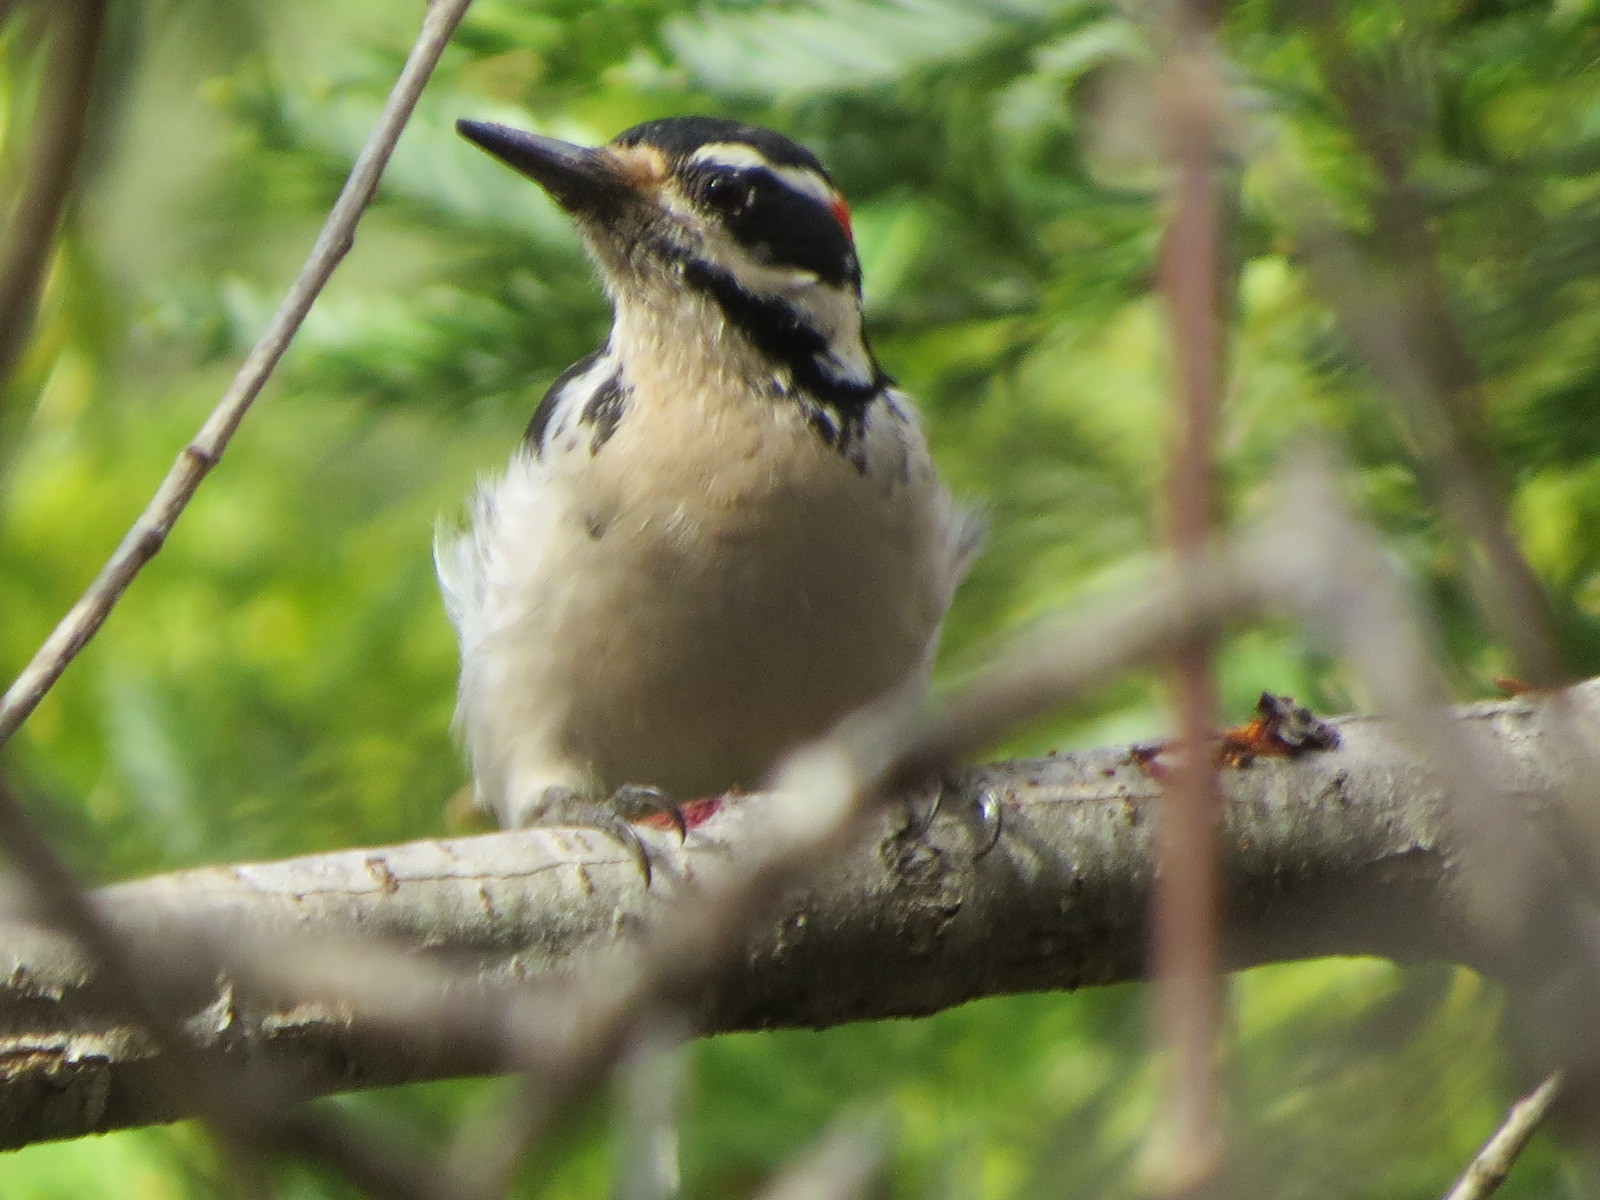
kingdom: Animalia
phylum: Chordata
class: Aves
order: Piciformes
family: Picidae
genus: Leuconotopicus
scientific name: Leuconotopicus villosus
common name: Hairy woodpecker
